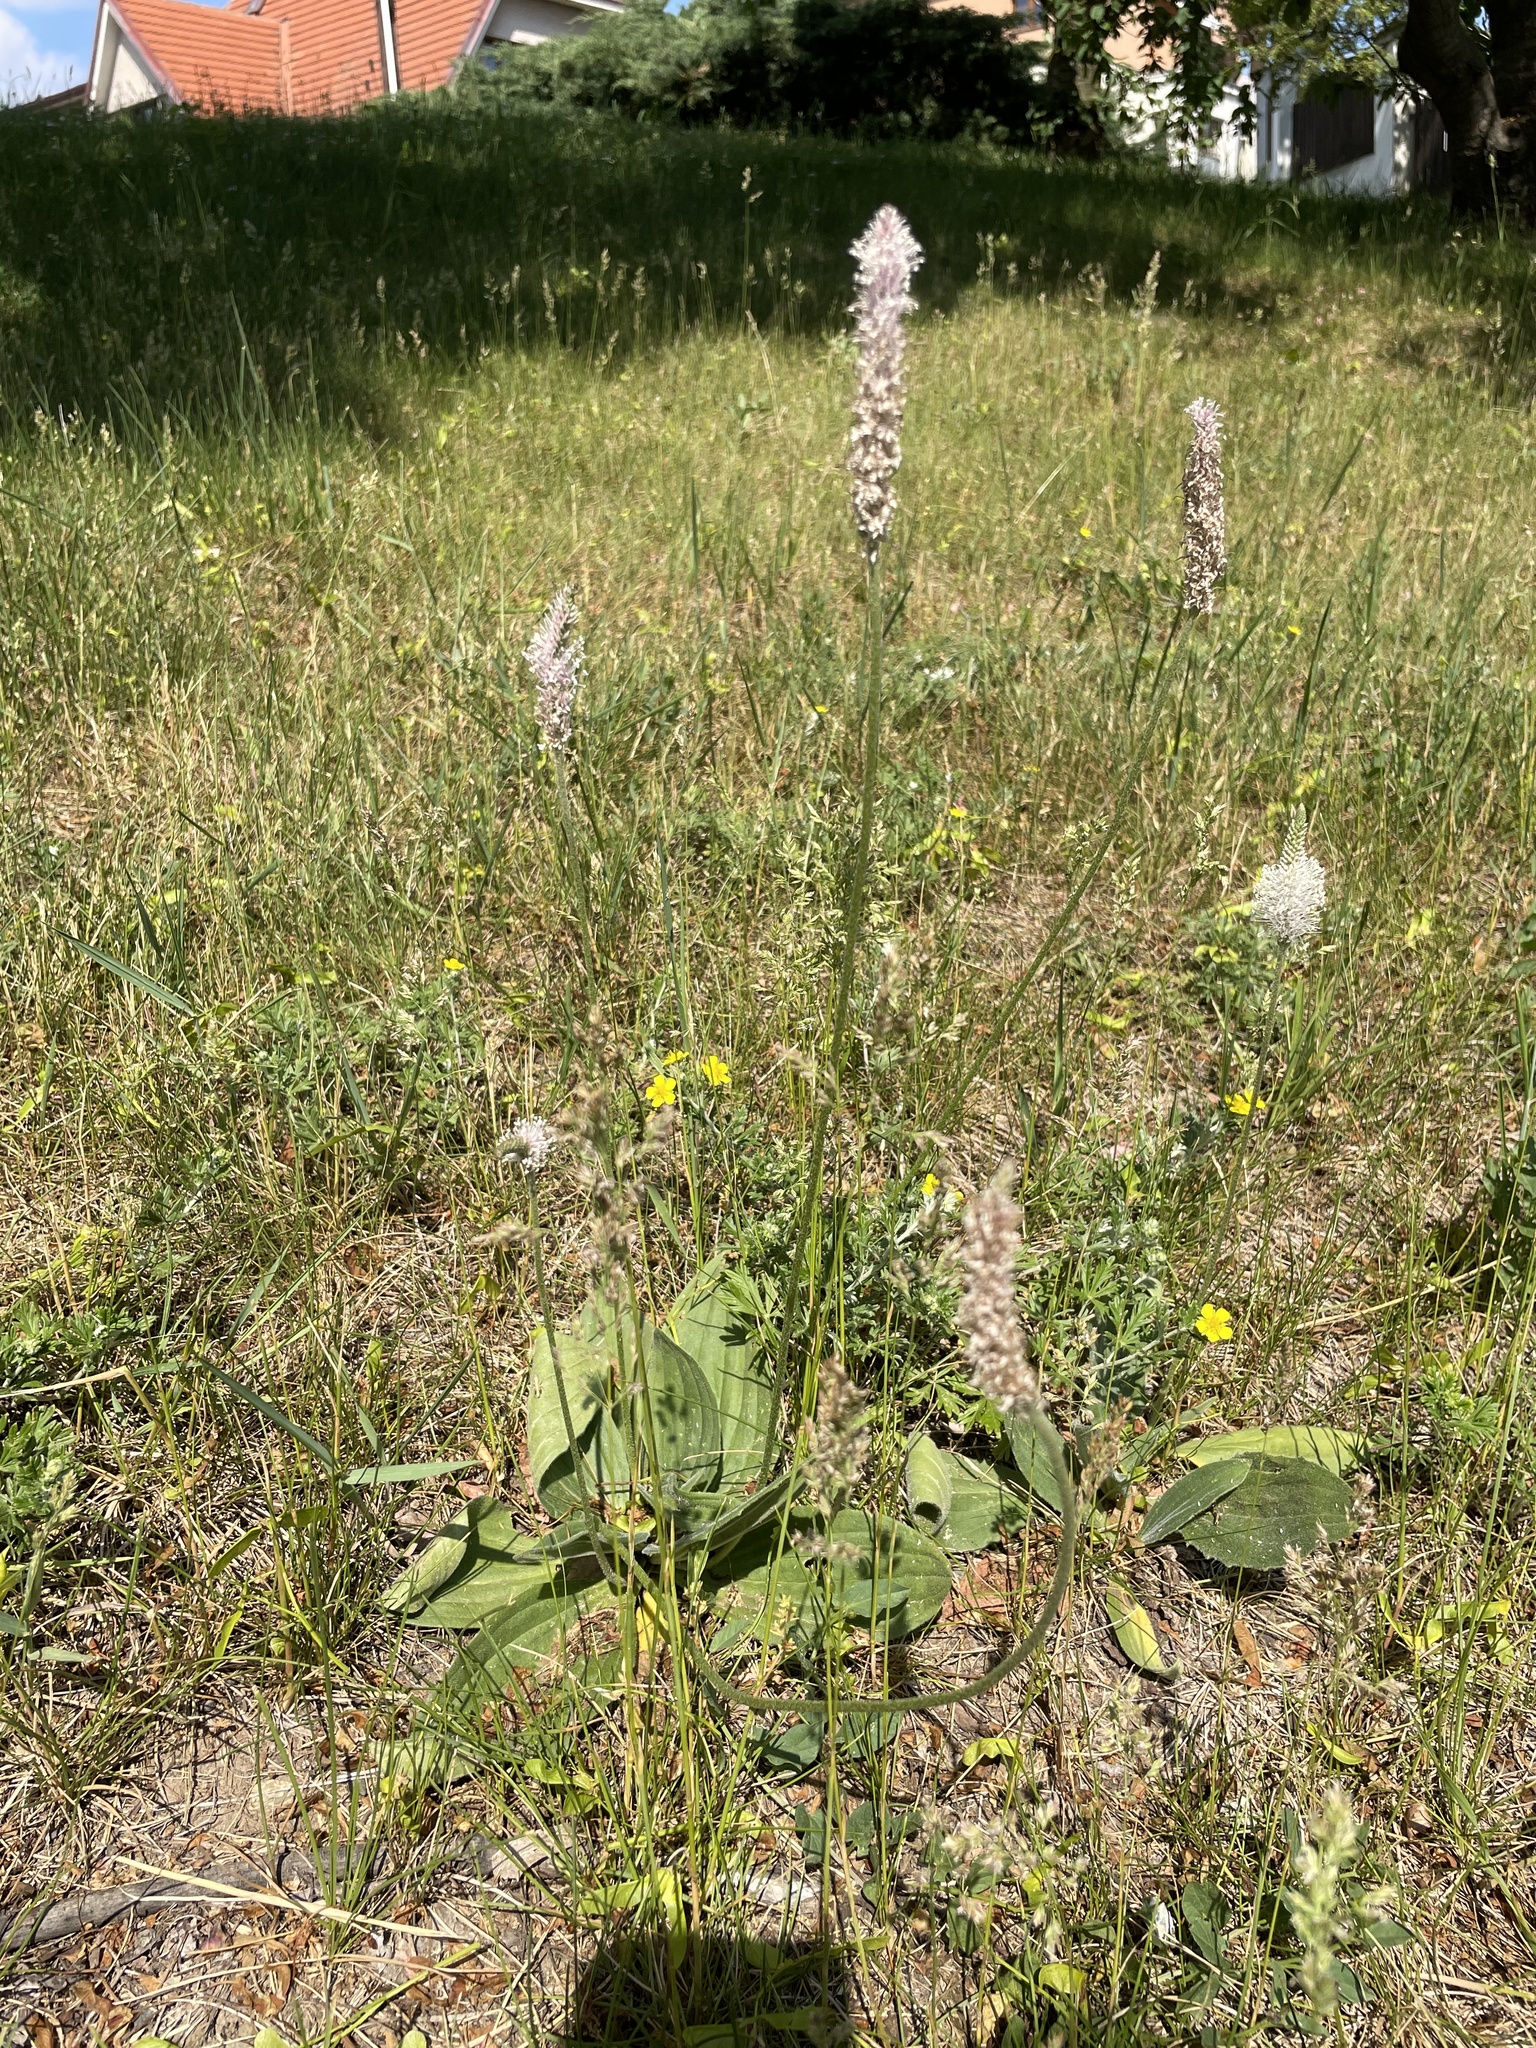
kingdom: Plantae
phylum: Tracheophyta
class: Magnoliopsida
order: Lamiales
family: Plantaginaceae
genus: Plantago
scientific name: Plantago media
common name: Hoary plantain
